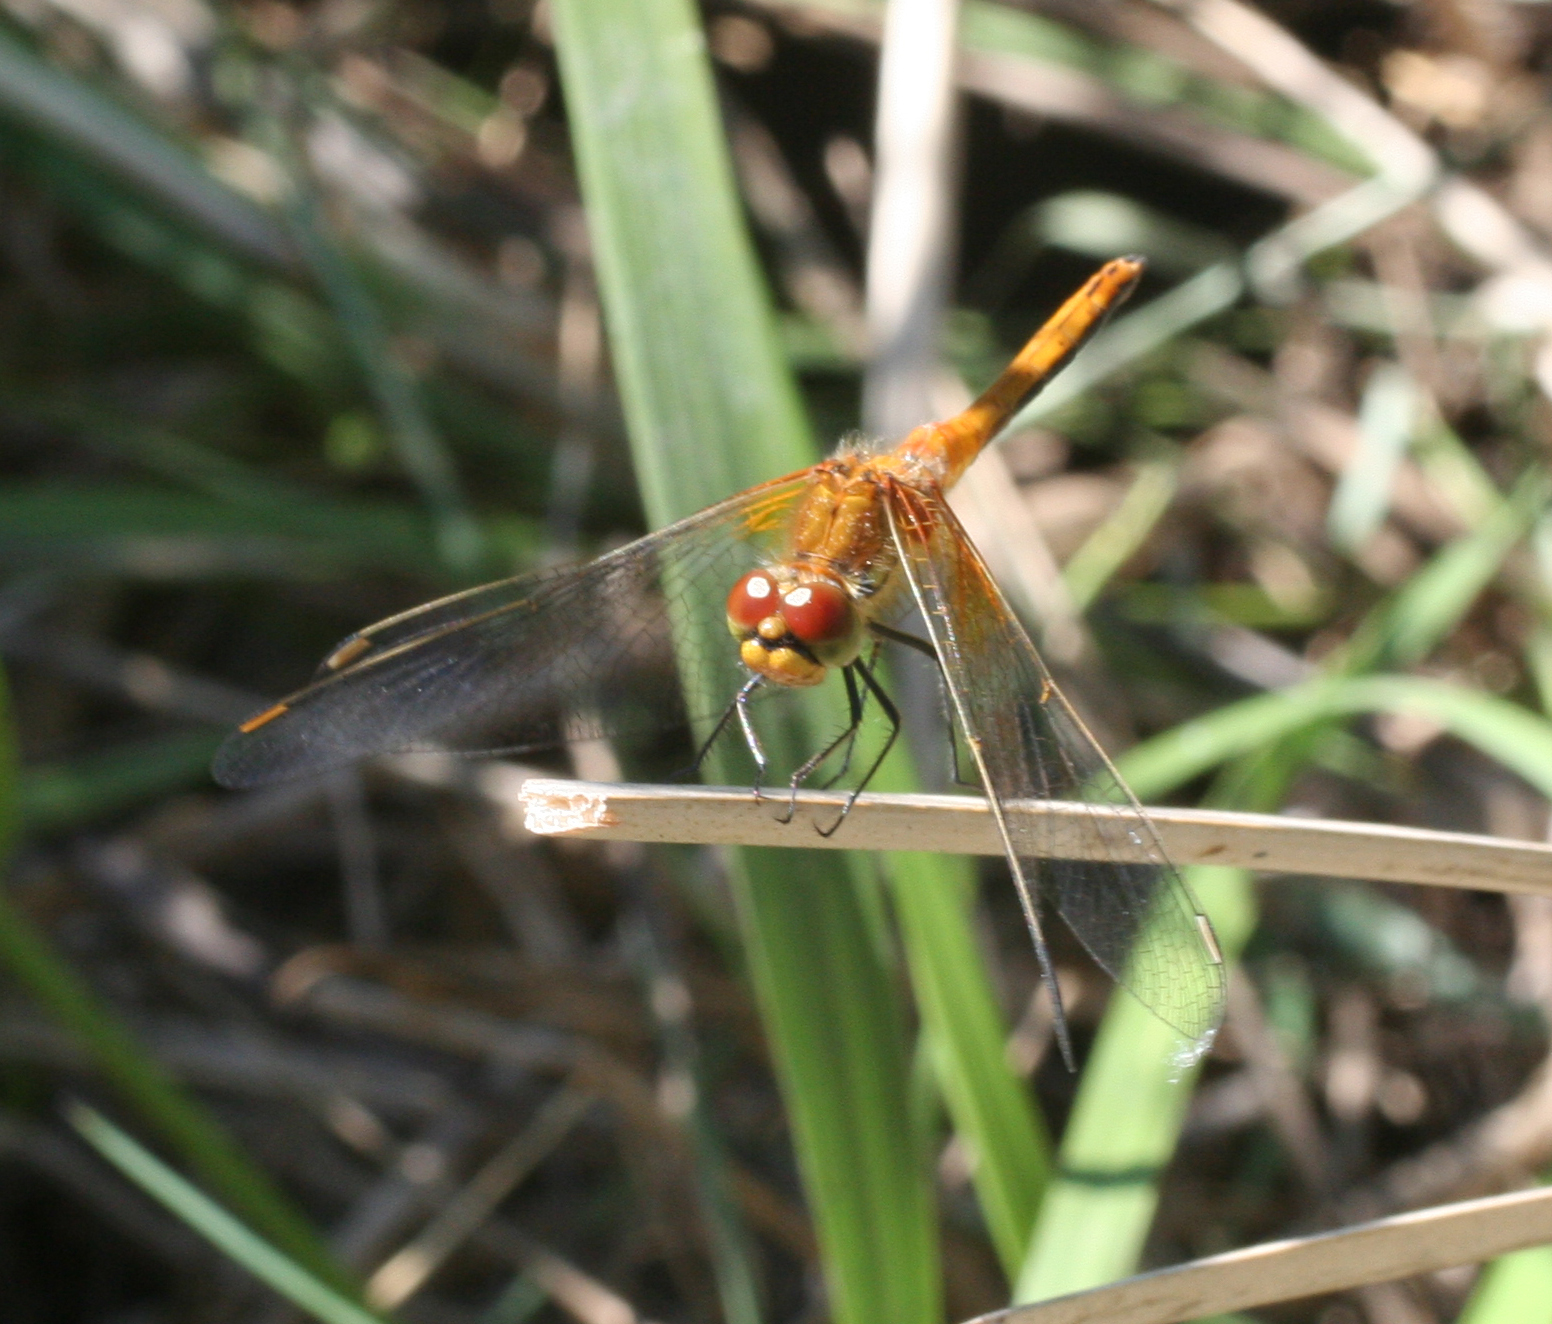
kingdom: Animalia
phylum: Arthropoda
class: Insecta
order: Odonata
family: Libellulidae
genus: Sympetrum
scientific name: Sympetrum flaveolum
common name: Yellow-winged darter
